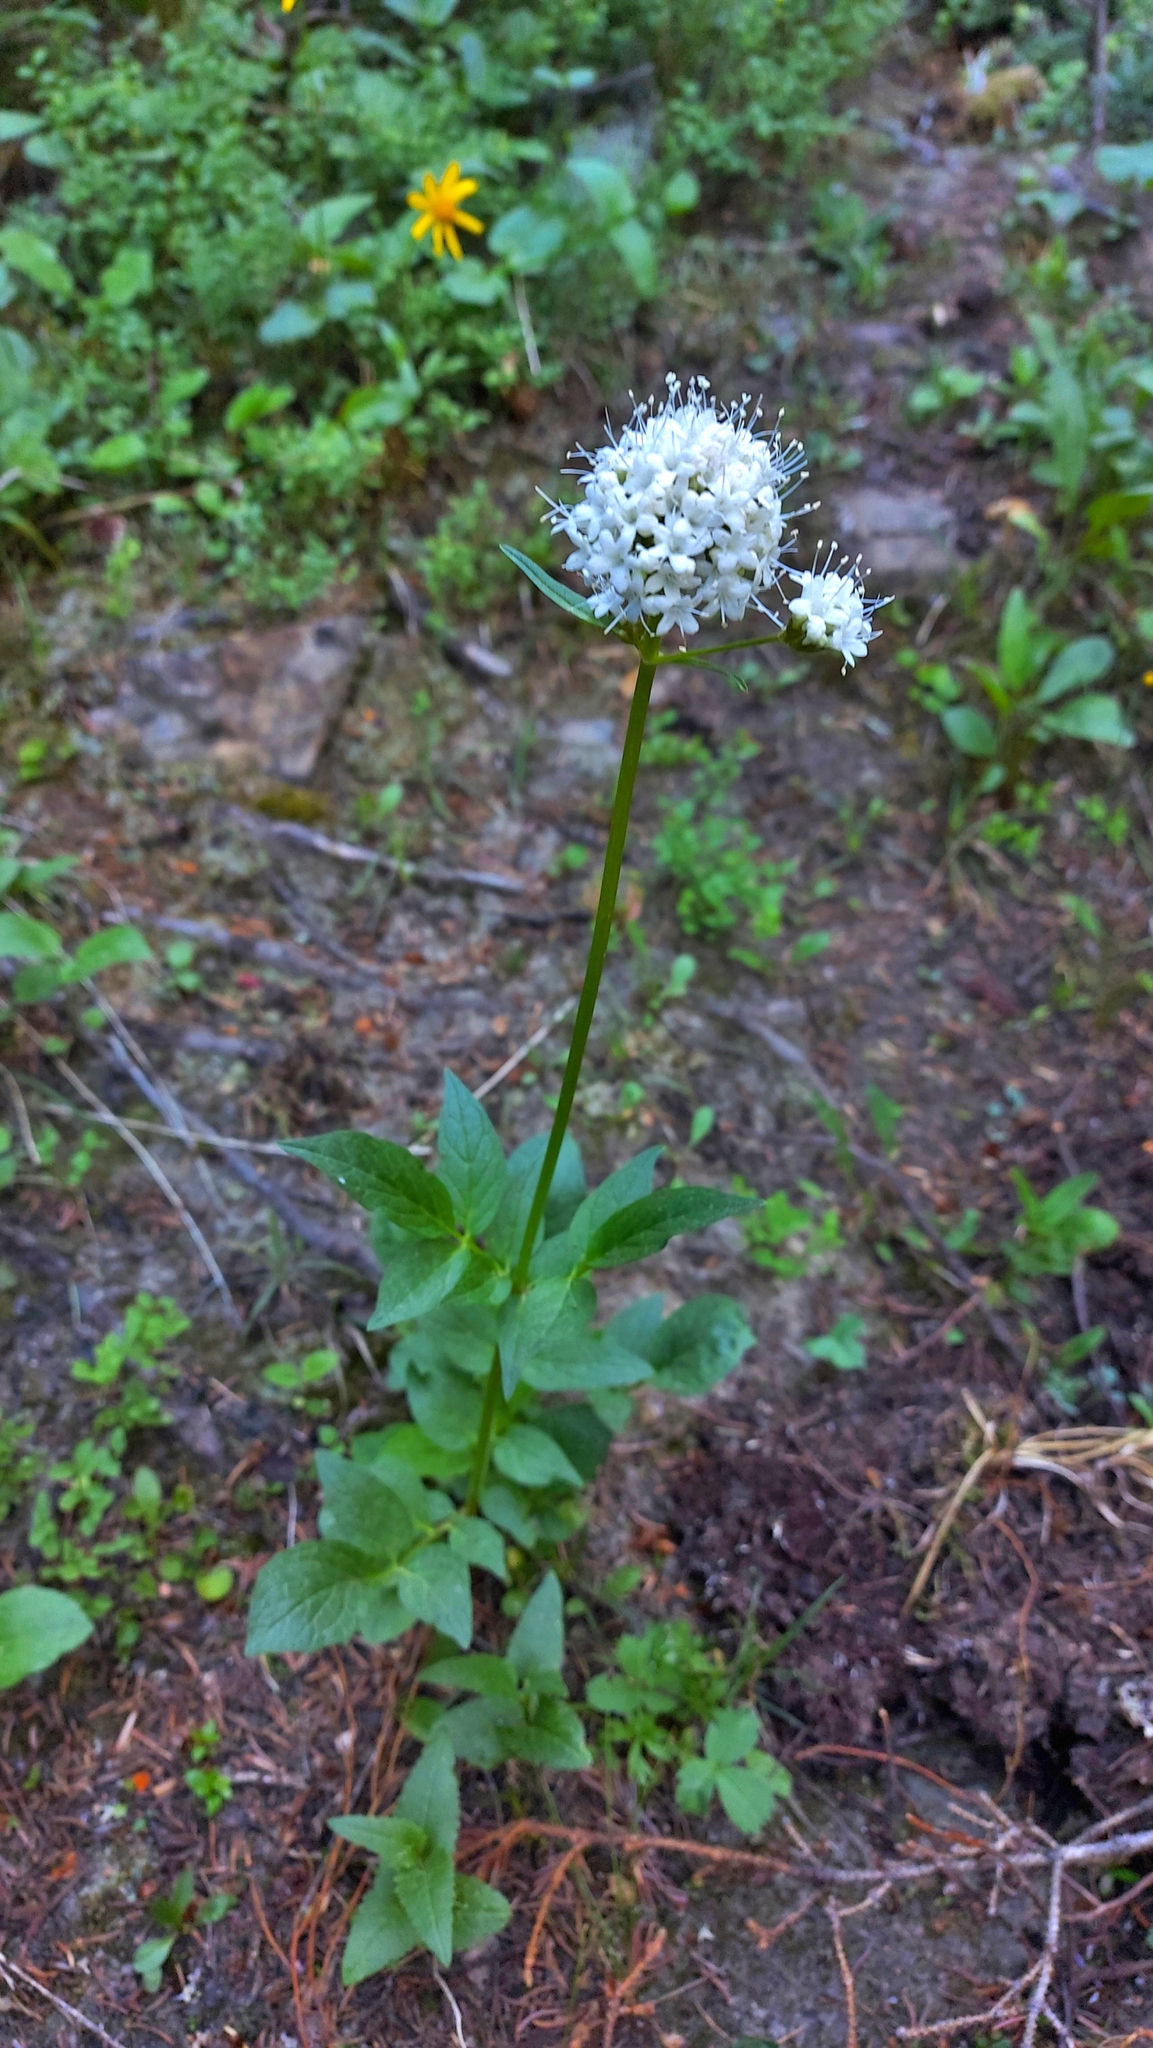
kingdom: Plantae
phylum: Tracheophyta
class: Magnoliopsida
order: Dipsacales
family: Caprifoliaceae
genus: Valeriana
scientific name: Valeriana sitchensis
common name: Pacific valerian
